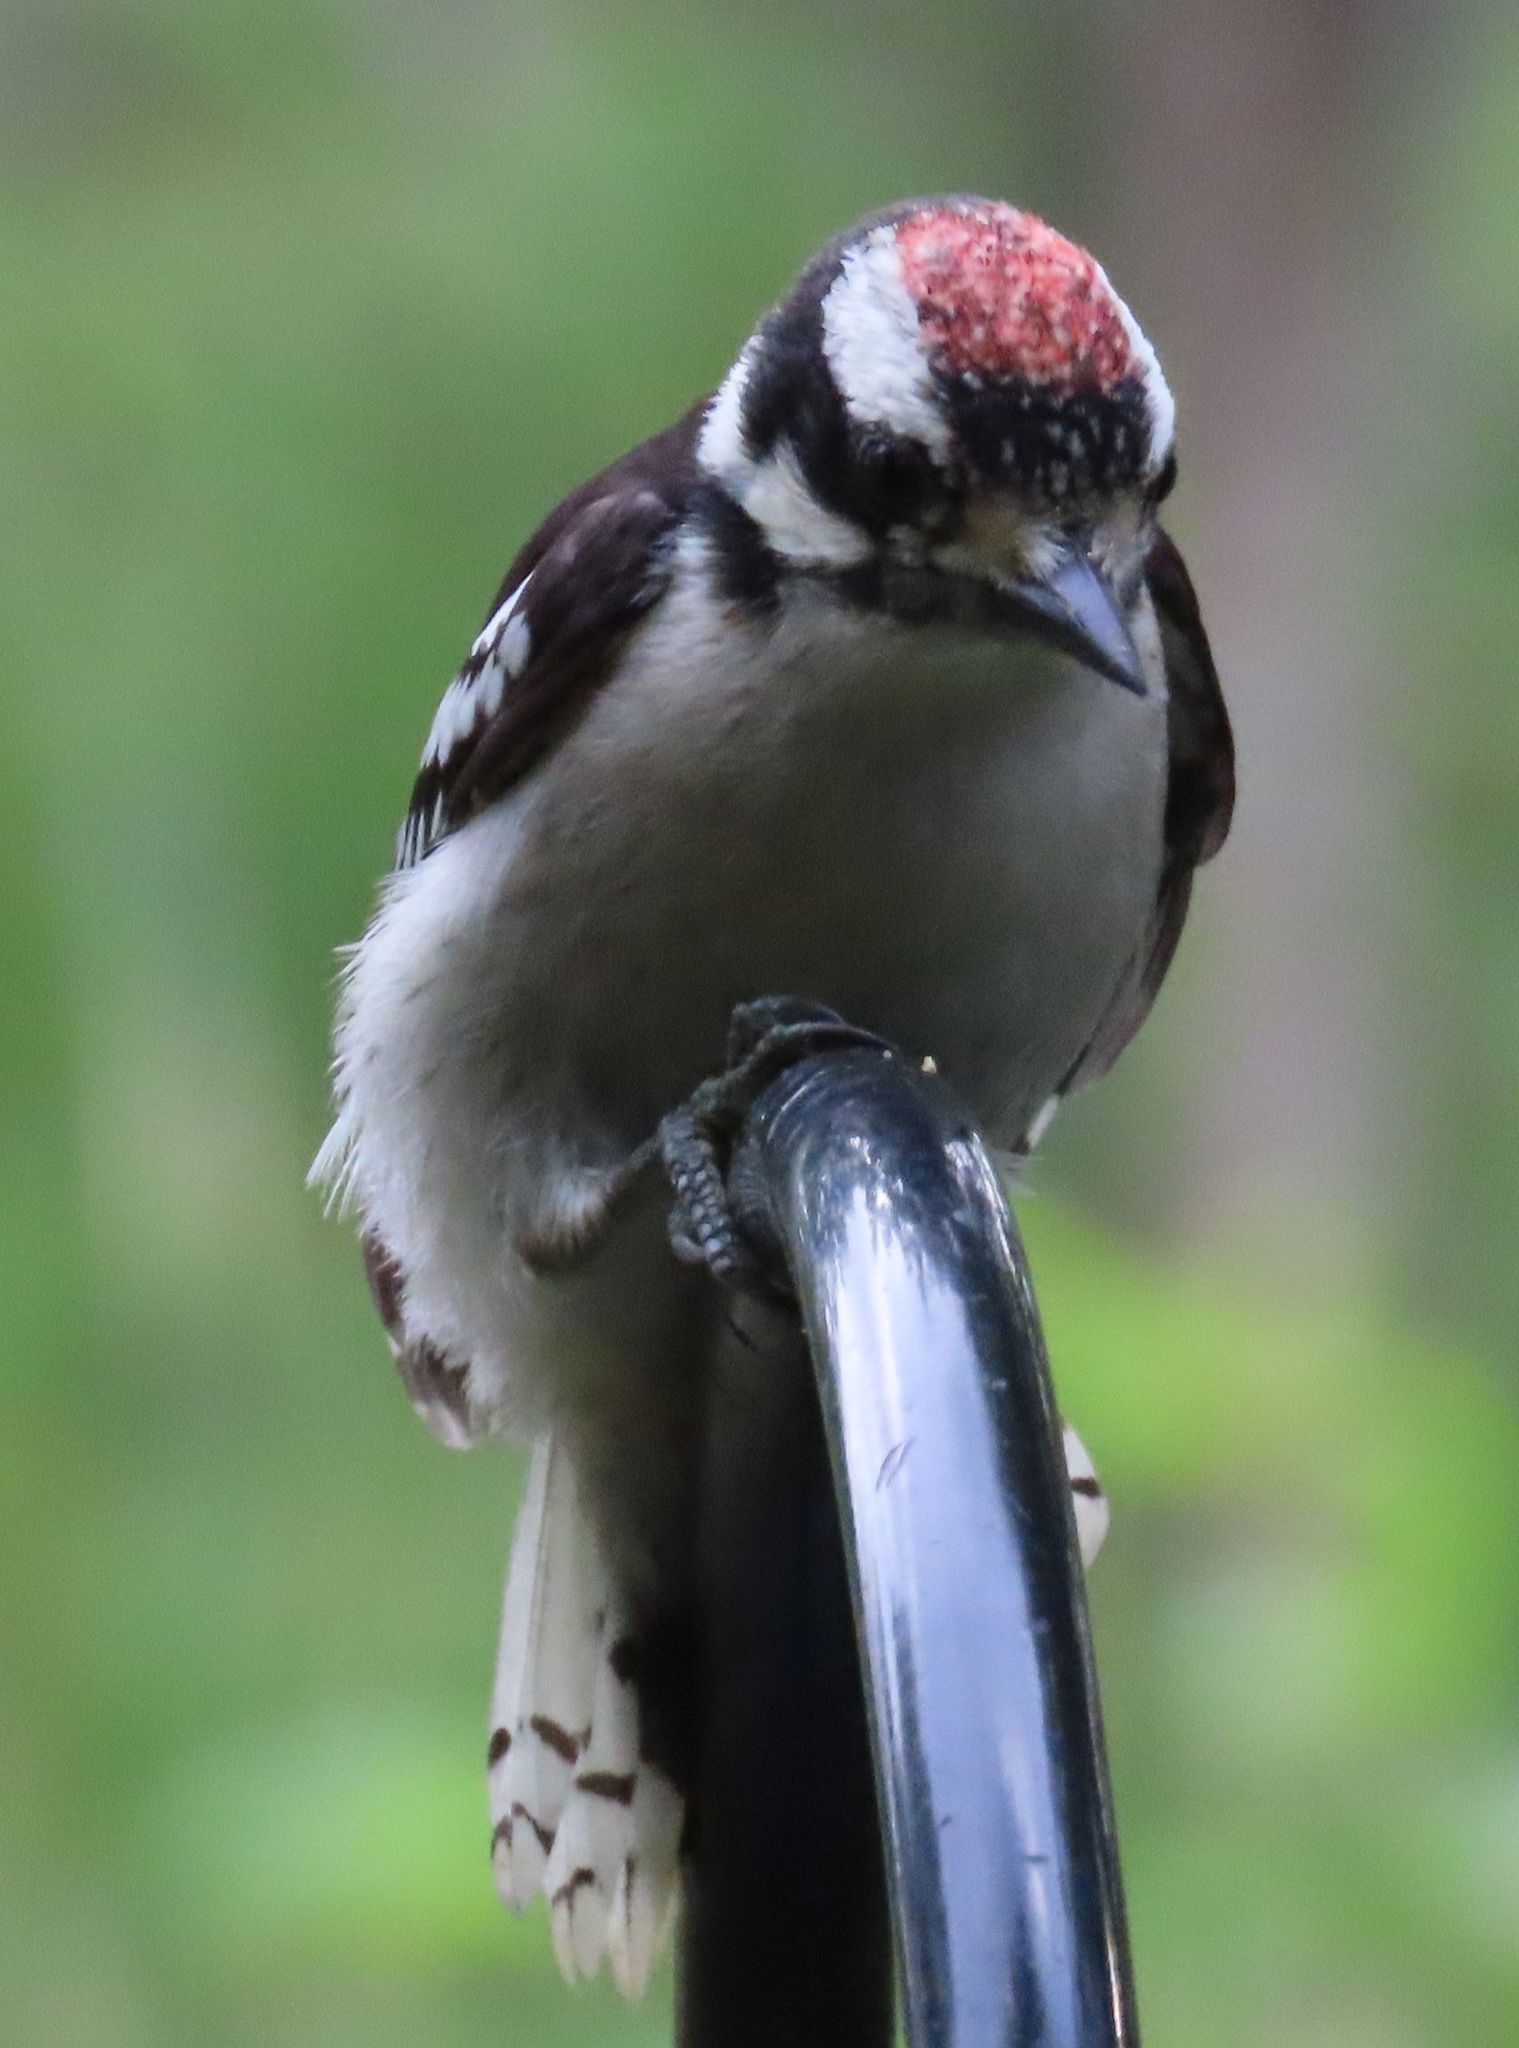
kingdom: Animalia
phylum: Chordata
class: Aves
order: Piciformes
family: Picidae
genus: Dryobates
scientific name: Dryobates pubescens
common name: Downy woodpecker
